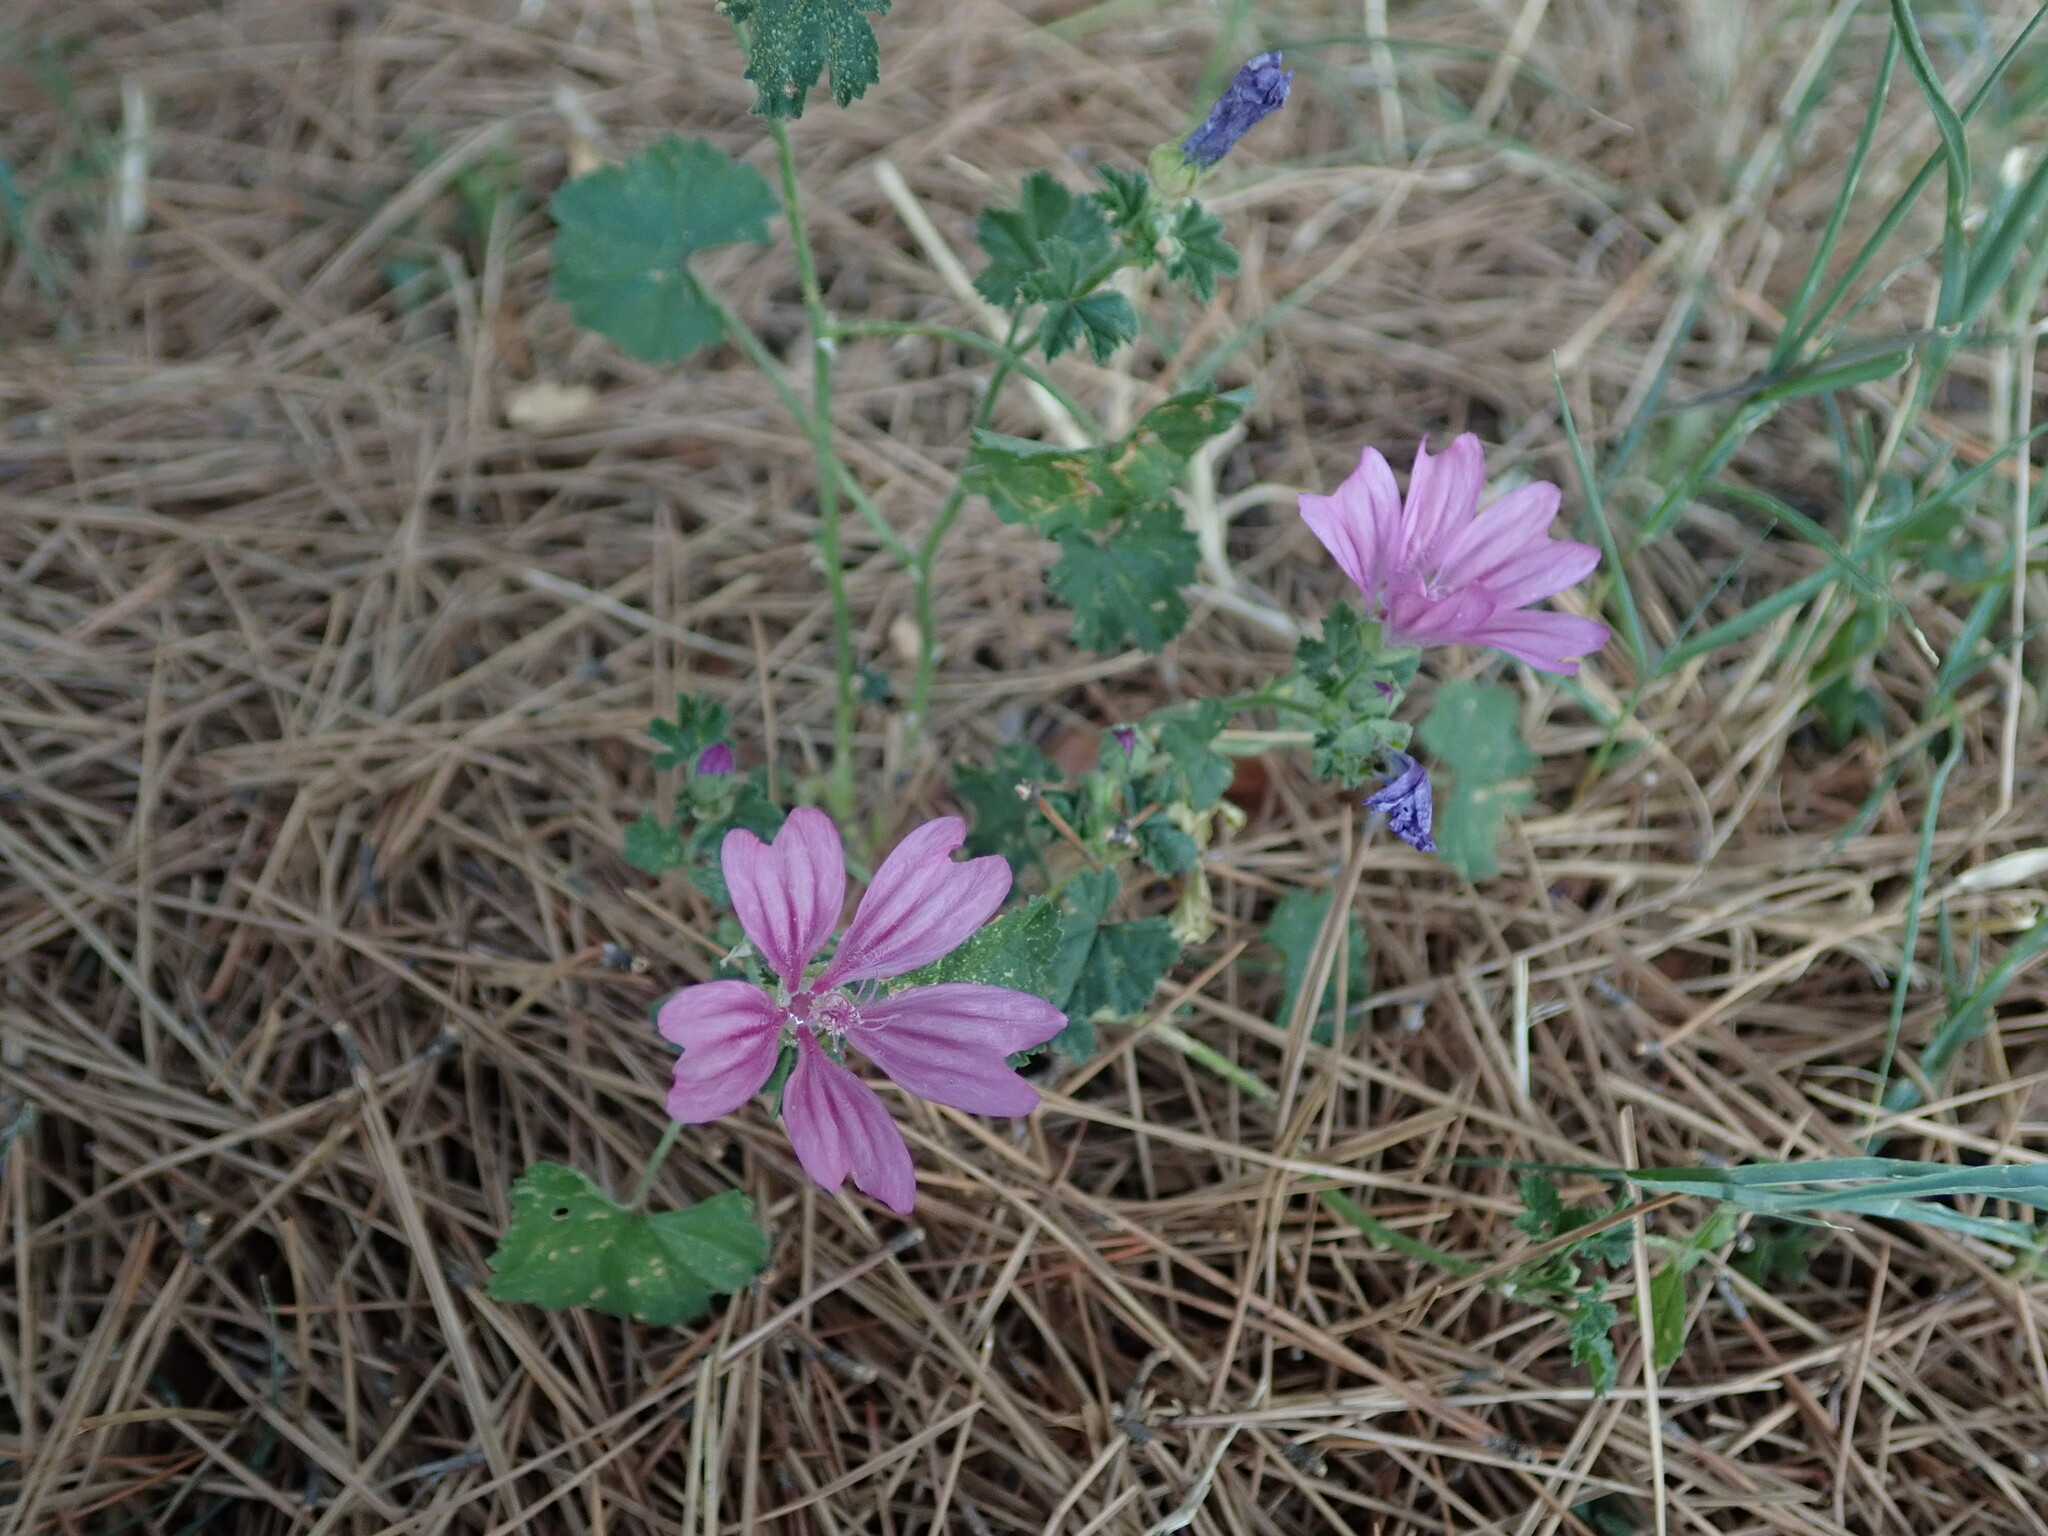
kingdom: Plantae
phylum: Tracheophyta
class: Magnoliopsida
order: Malvales
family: Malvaceae
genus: Malva
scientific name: Malva sylvestris
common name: Common mallow
